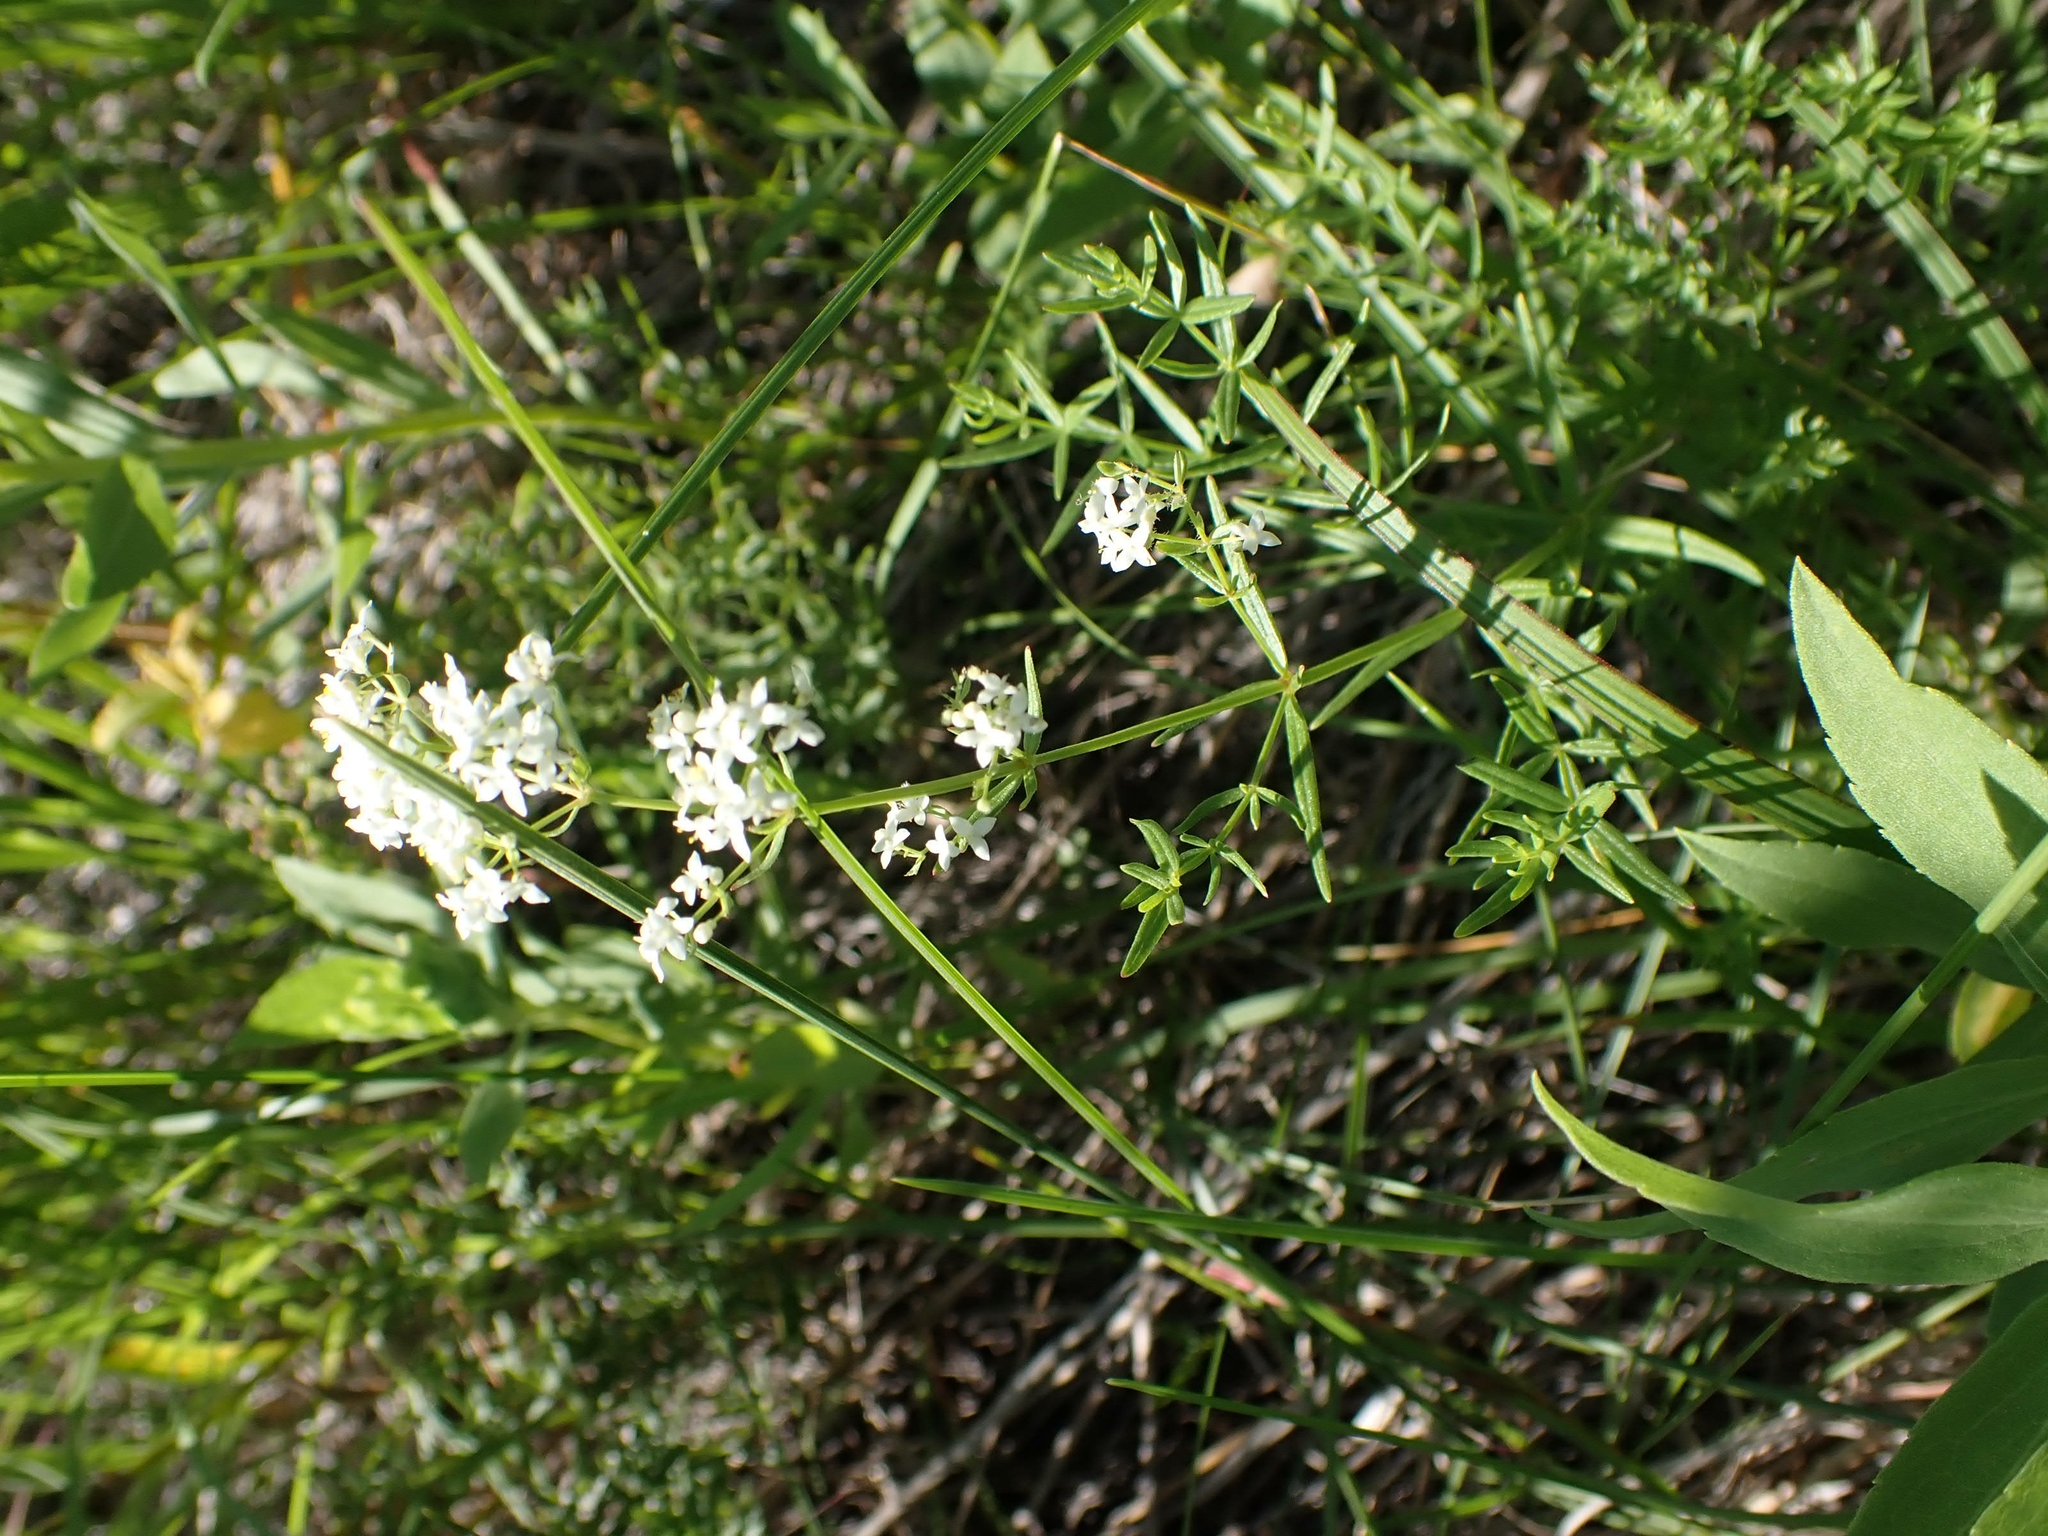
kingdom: Plantae
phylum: Tracheophyta
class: Magnoliopsida
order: Gentianales
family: Rubiaceae
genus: Galium
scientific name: Galium boreale
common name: Northern bedstraw
